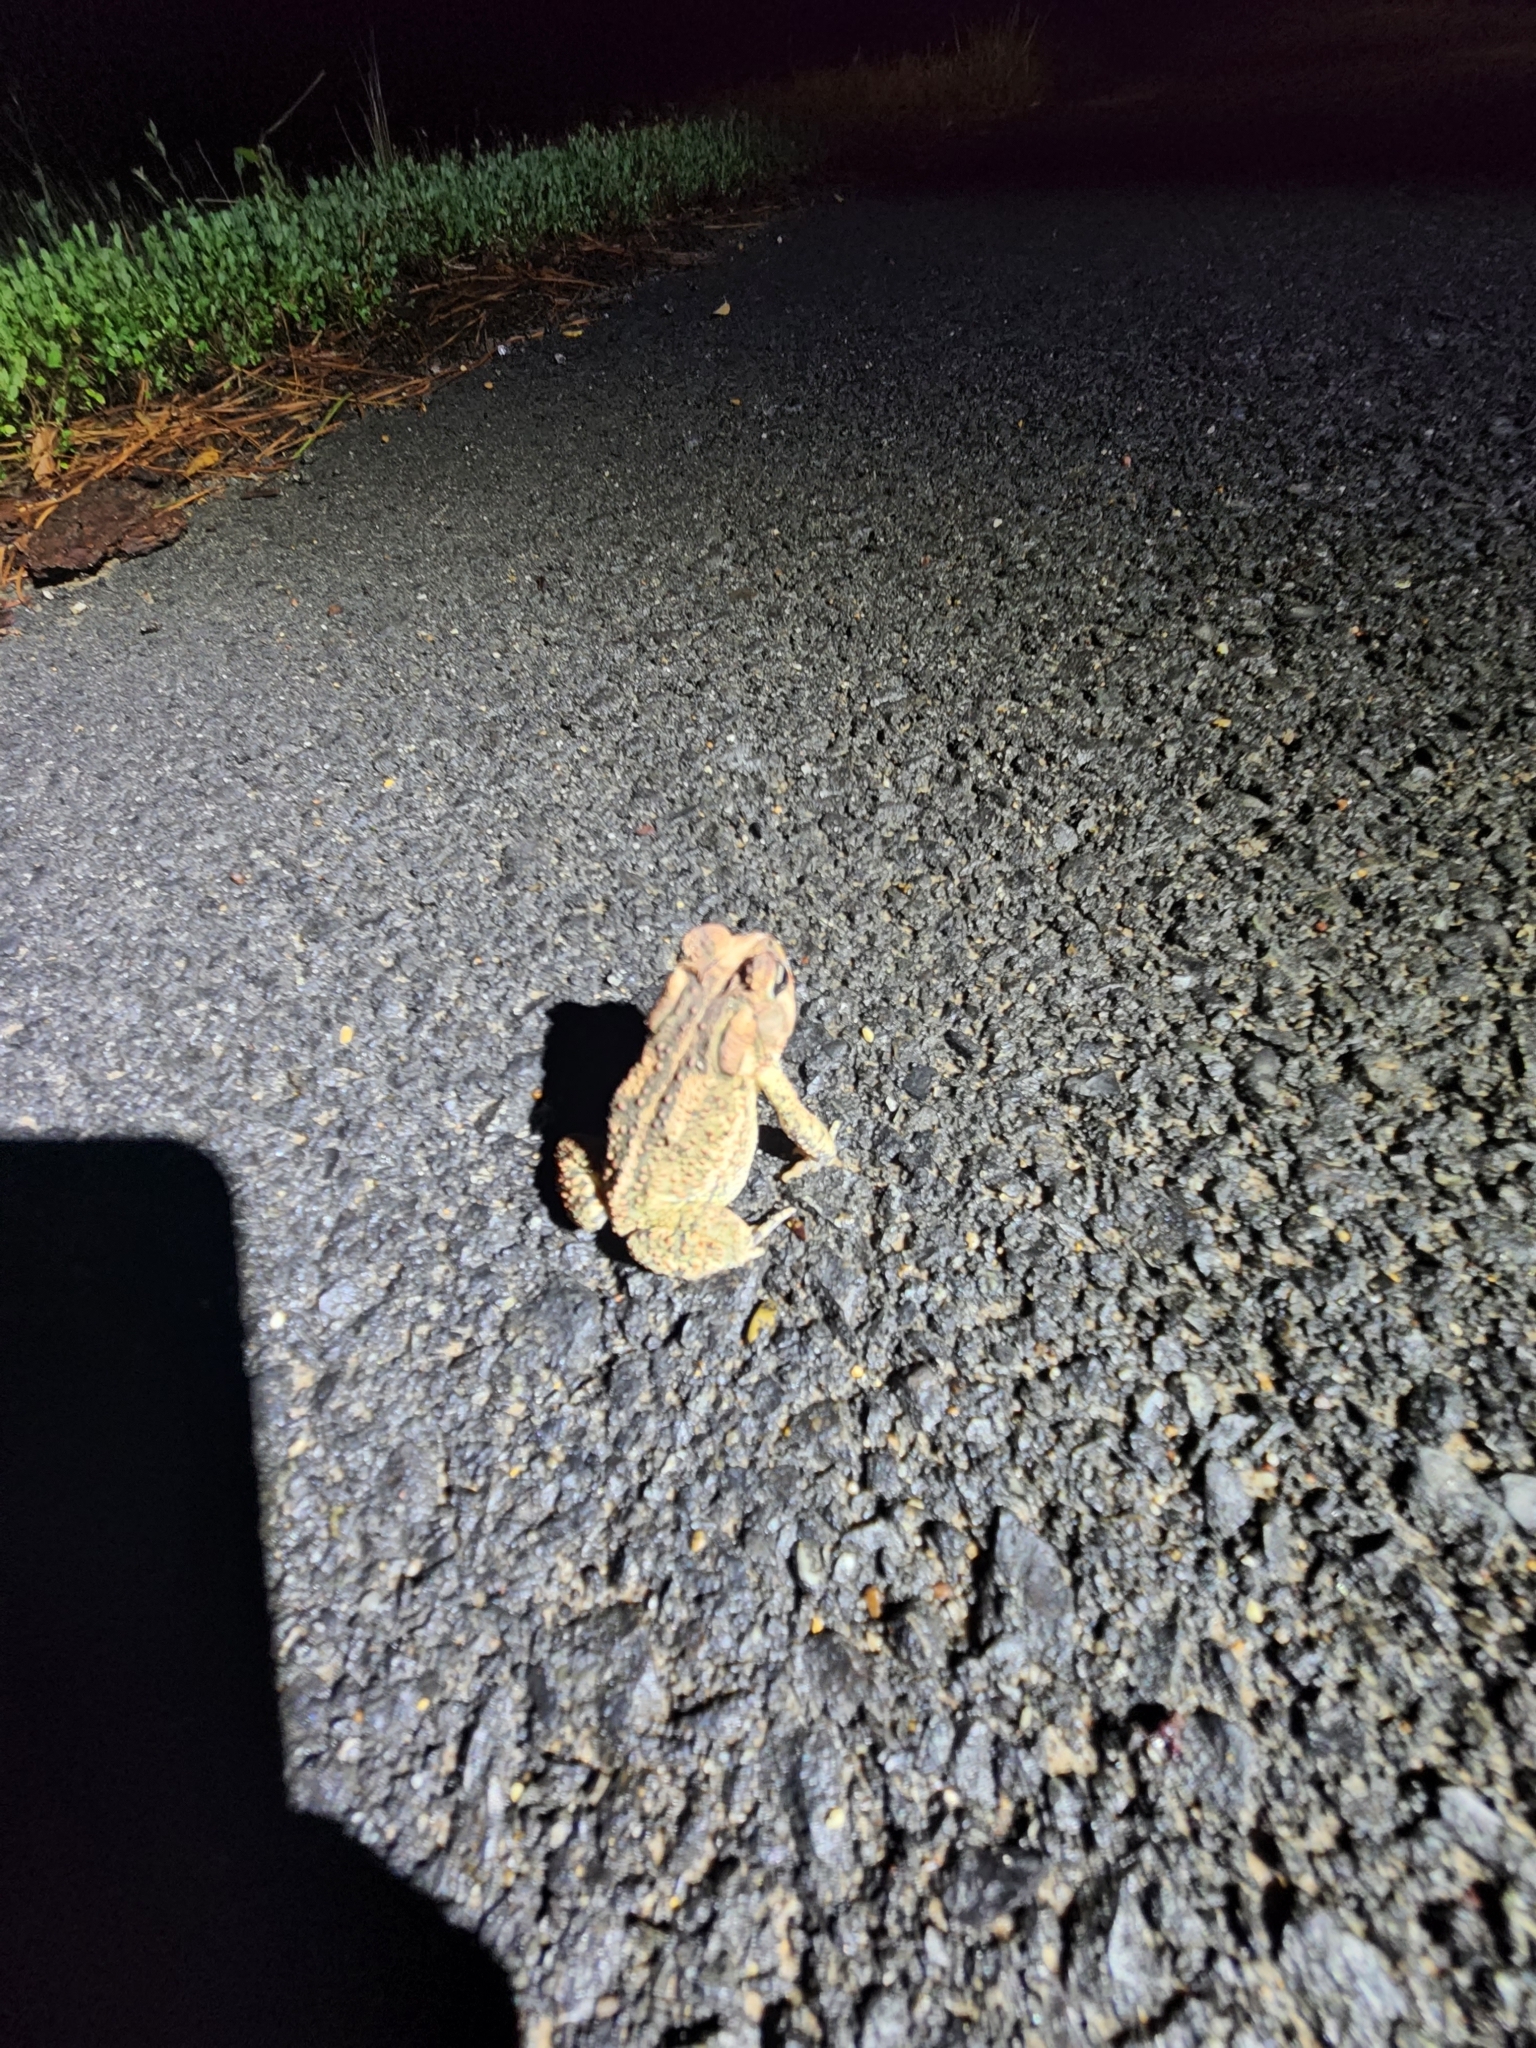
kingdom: Animalia
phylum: Chordata
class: Amphibia
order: Anura
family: Bufonidae
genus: Anaxyrus
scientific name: Anaxyrus americanus
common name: American toad
